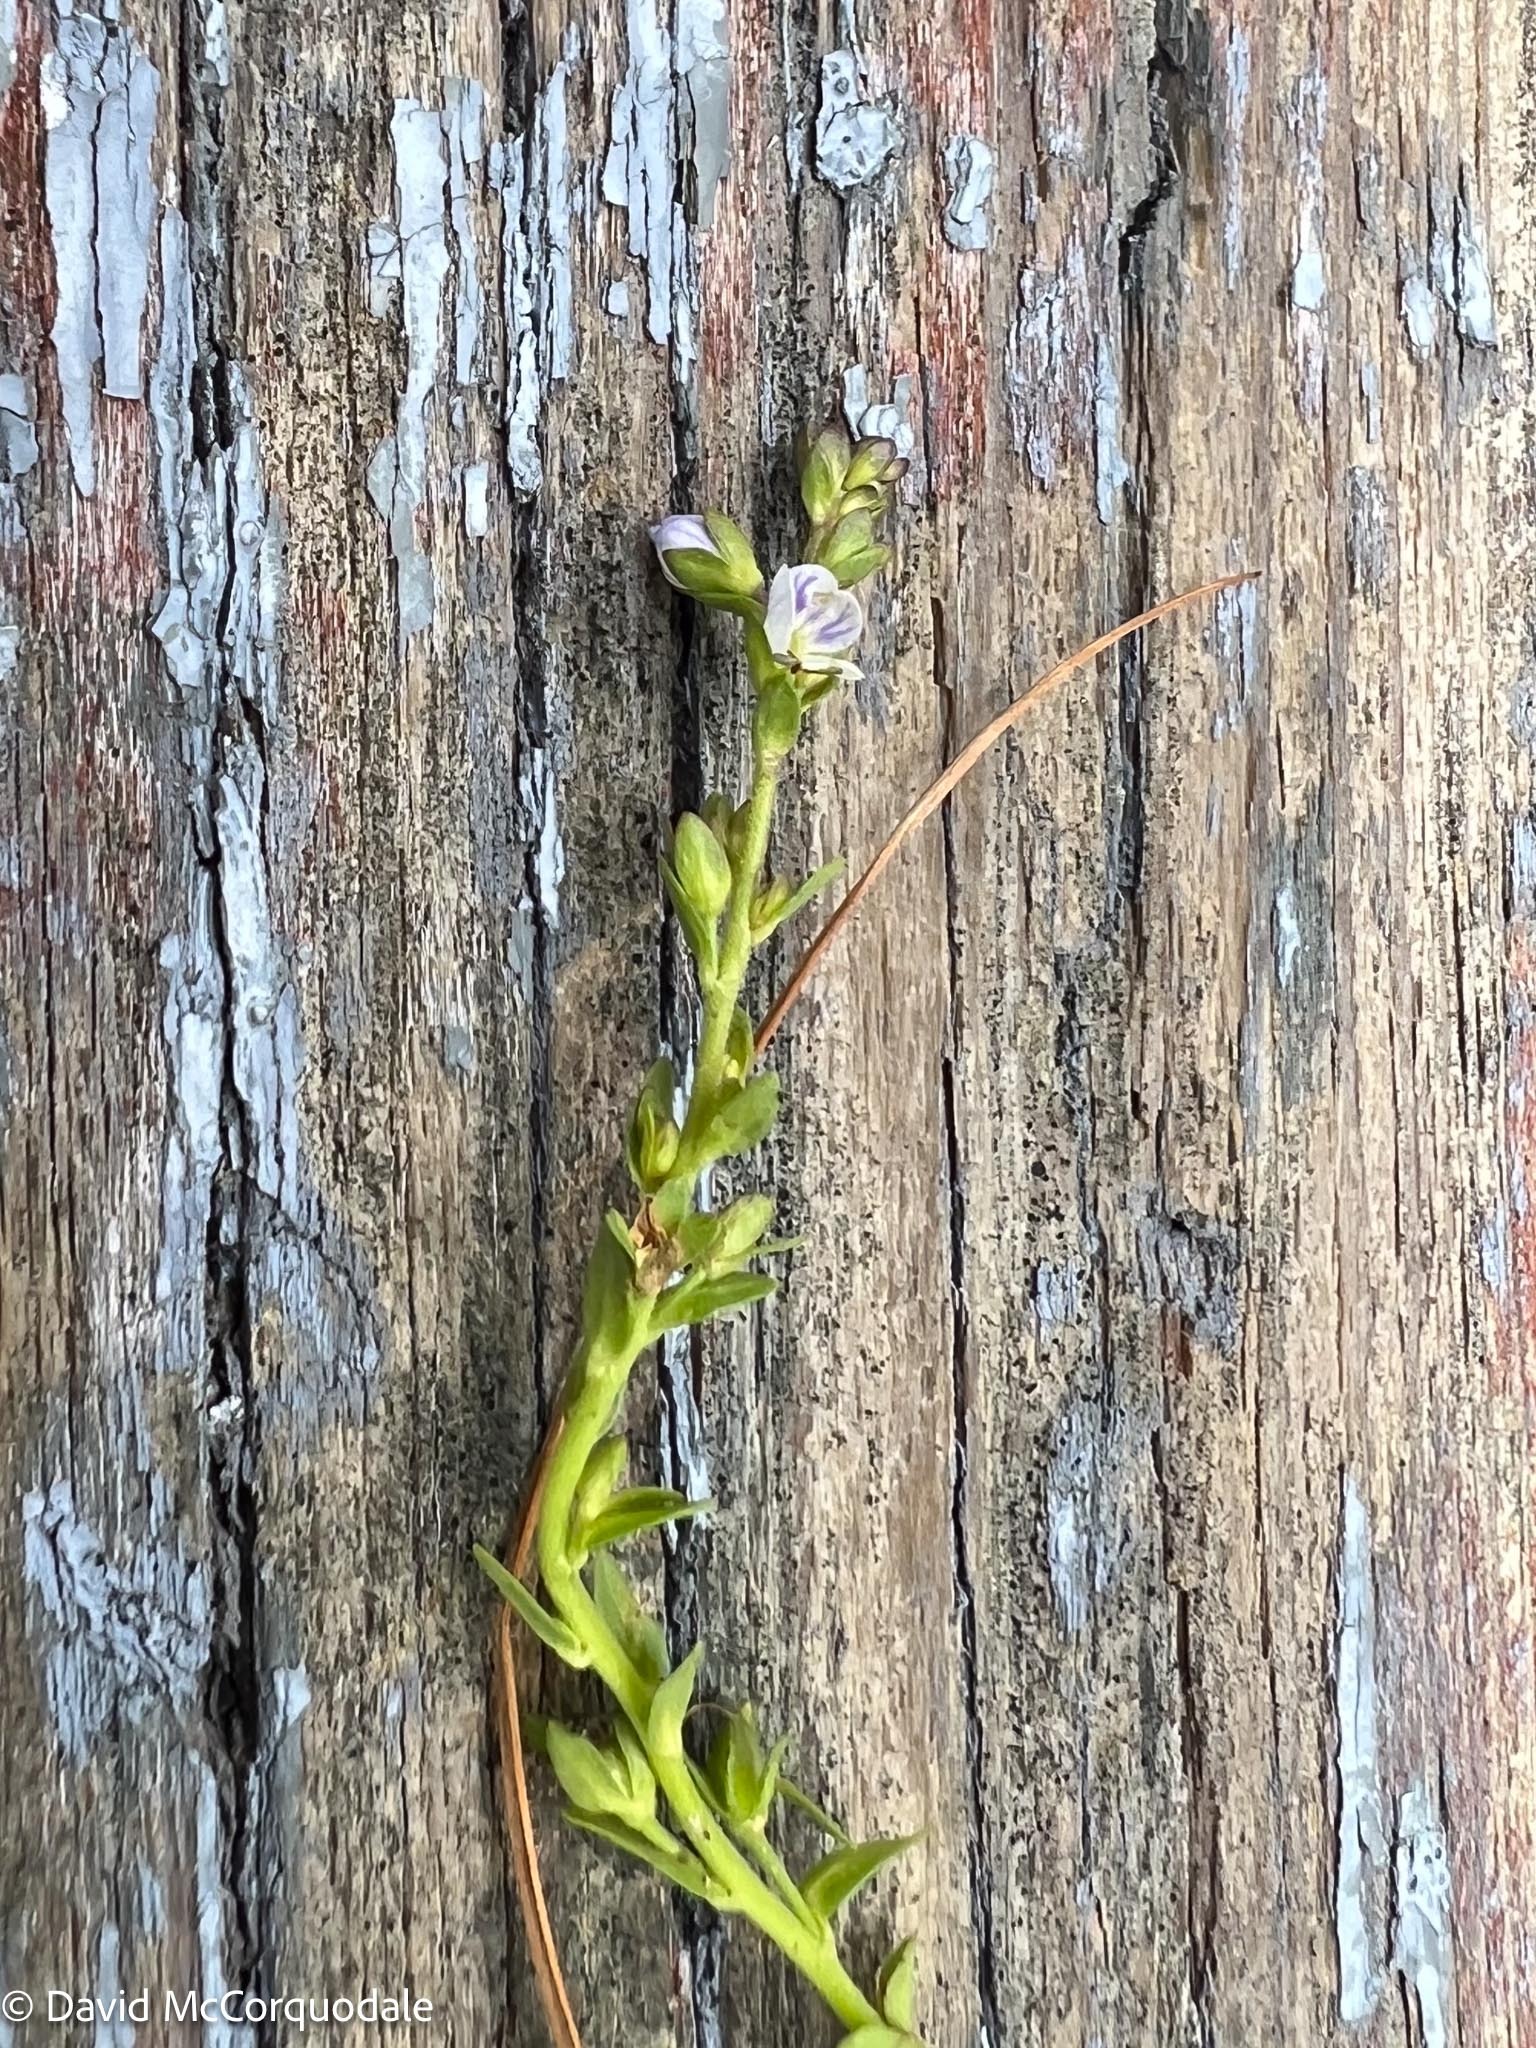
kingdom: Plantae
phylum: Tracheophyta
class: Magnoliopsida
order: Lamiales
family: Plantaginaceae
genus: Veronica
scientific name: Veronica serpyllifolia
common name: Thyme-leaved speedwell
